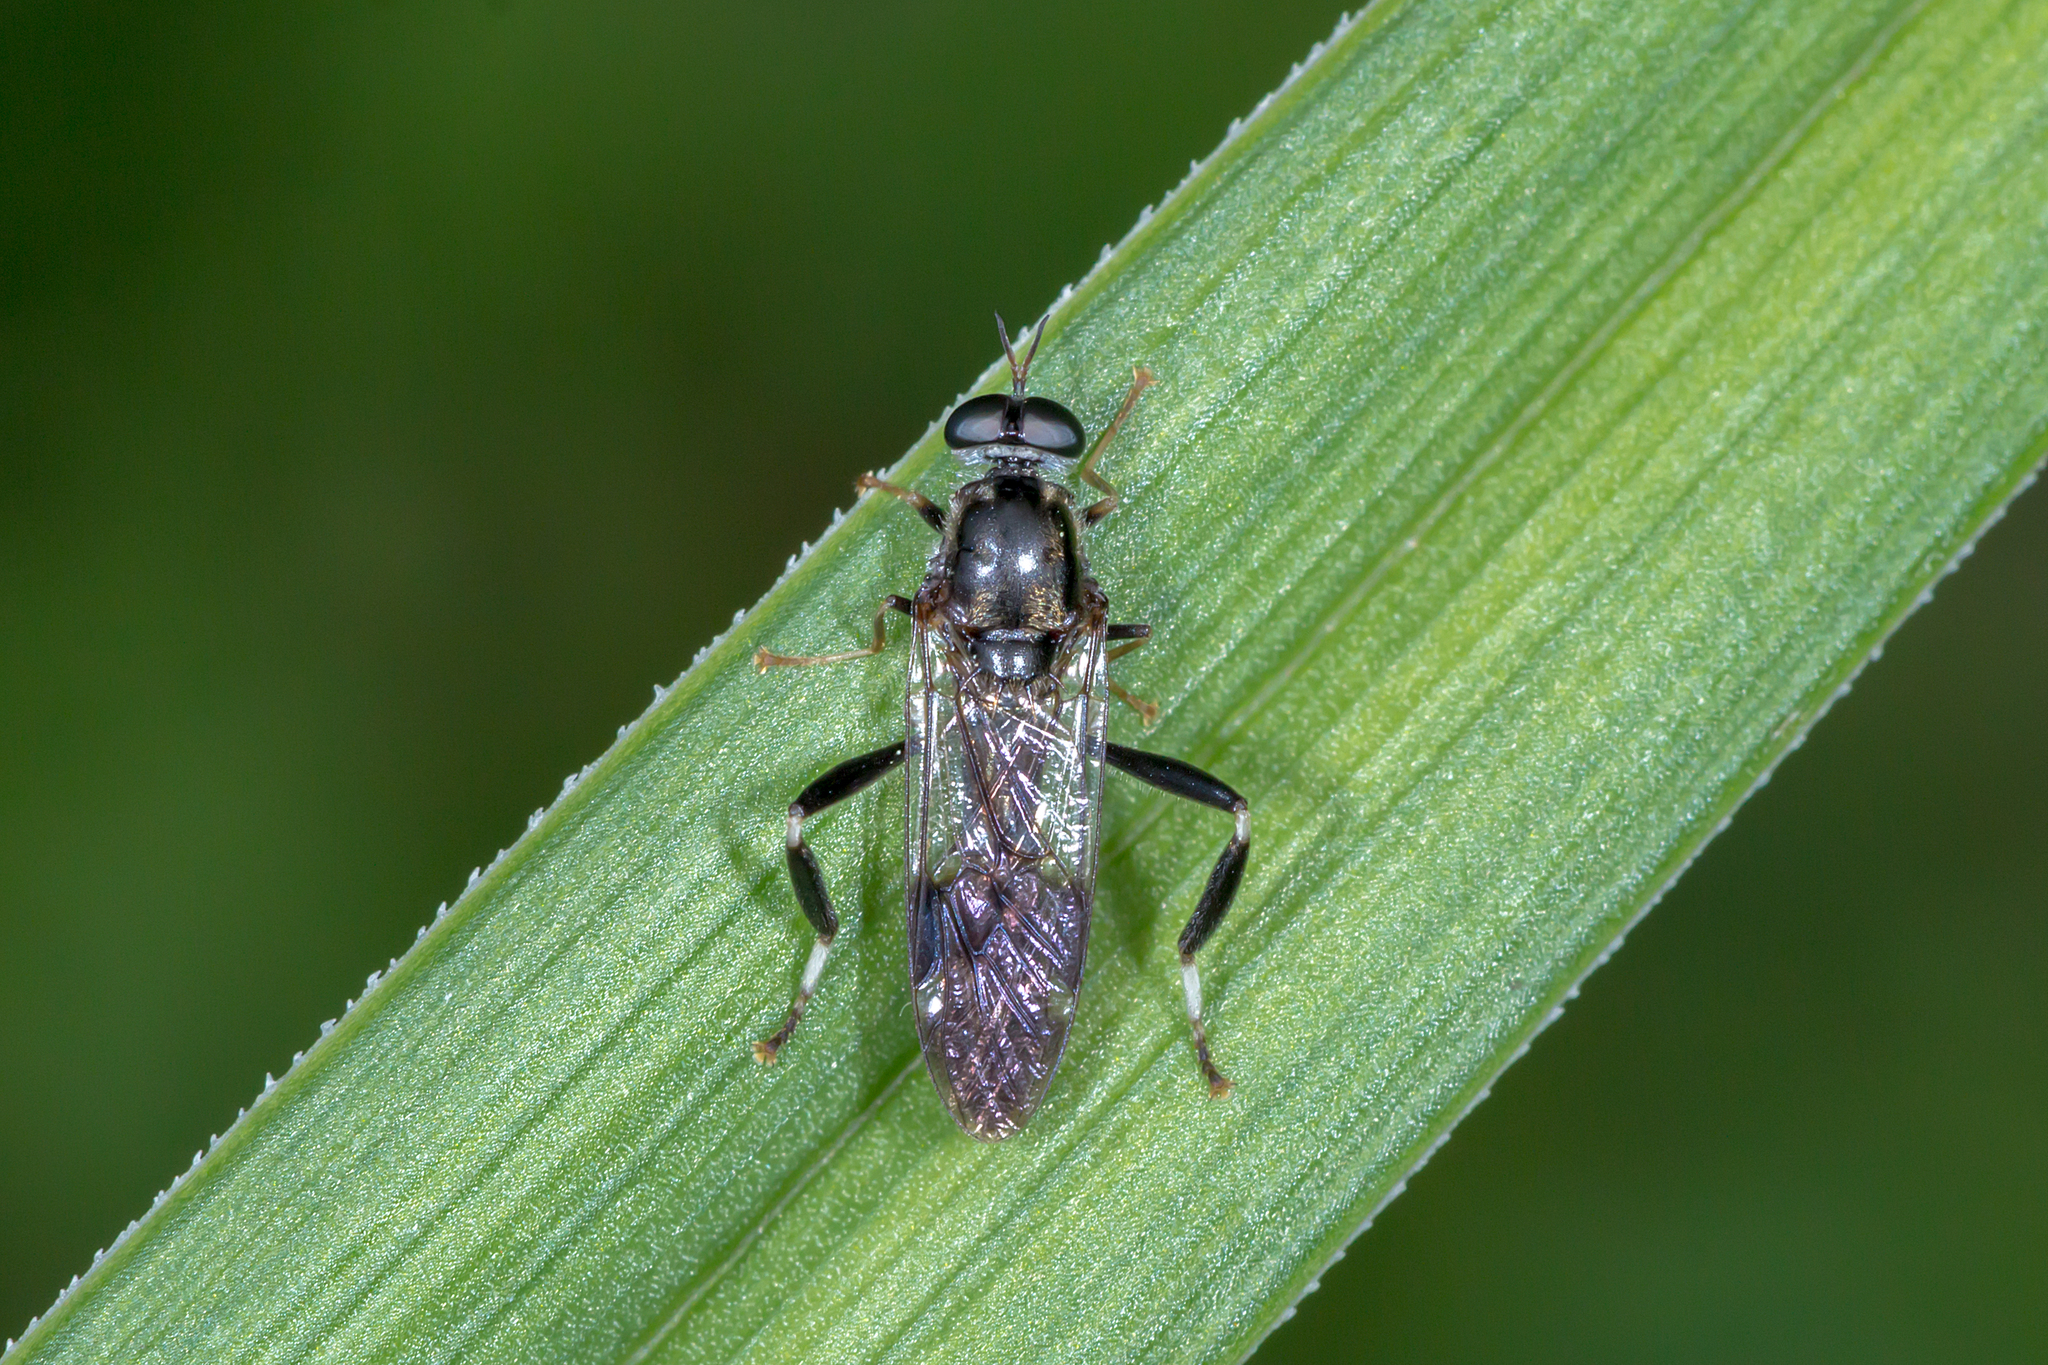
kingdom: Animalia
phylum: Arthropoda
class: Insecta
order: Diptera
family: Stratiomyidae
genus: Exaireta
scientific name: Exaireta spinigera
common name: Blue soldier fly
